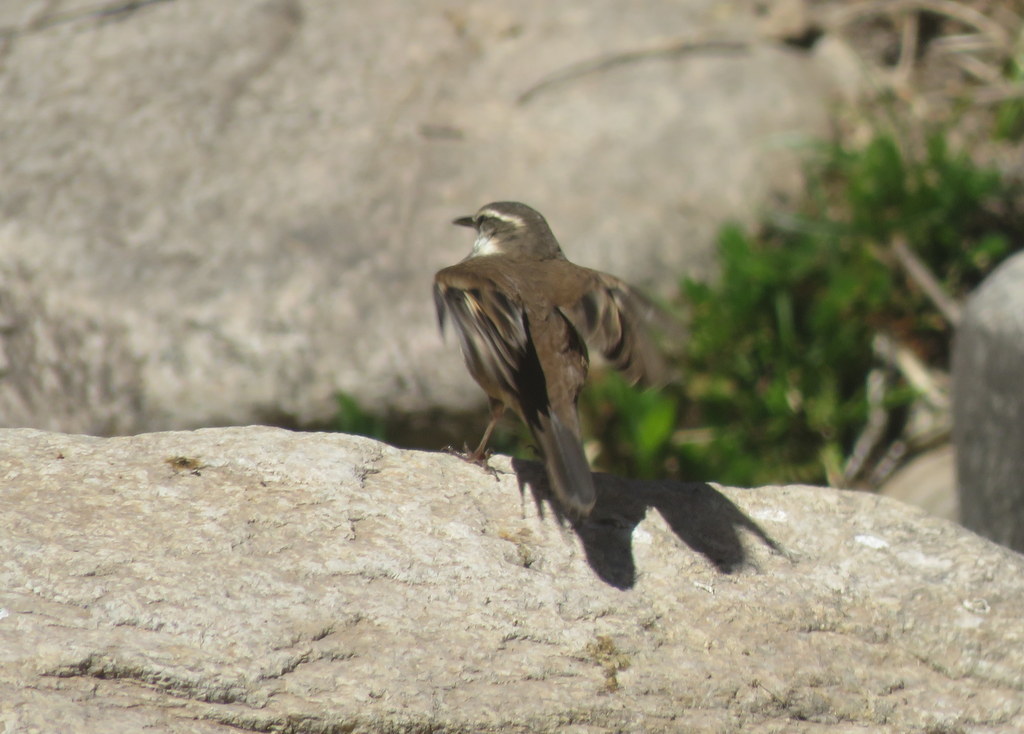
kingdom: Animalia
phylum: Chordata
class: Aves
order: Passeriformes
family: Furnariidae
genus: Cinclodes
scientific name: Cinclodes fuscus
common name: Buff-winged cinclodes
